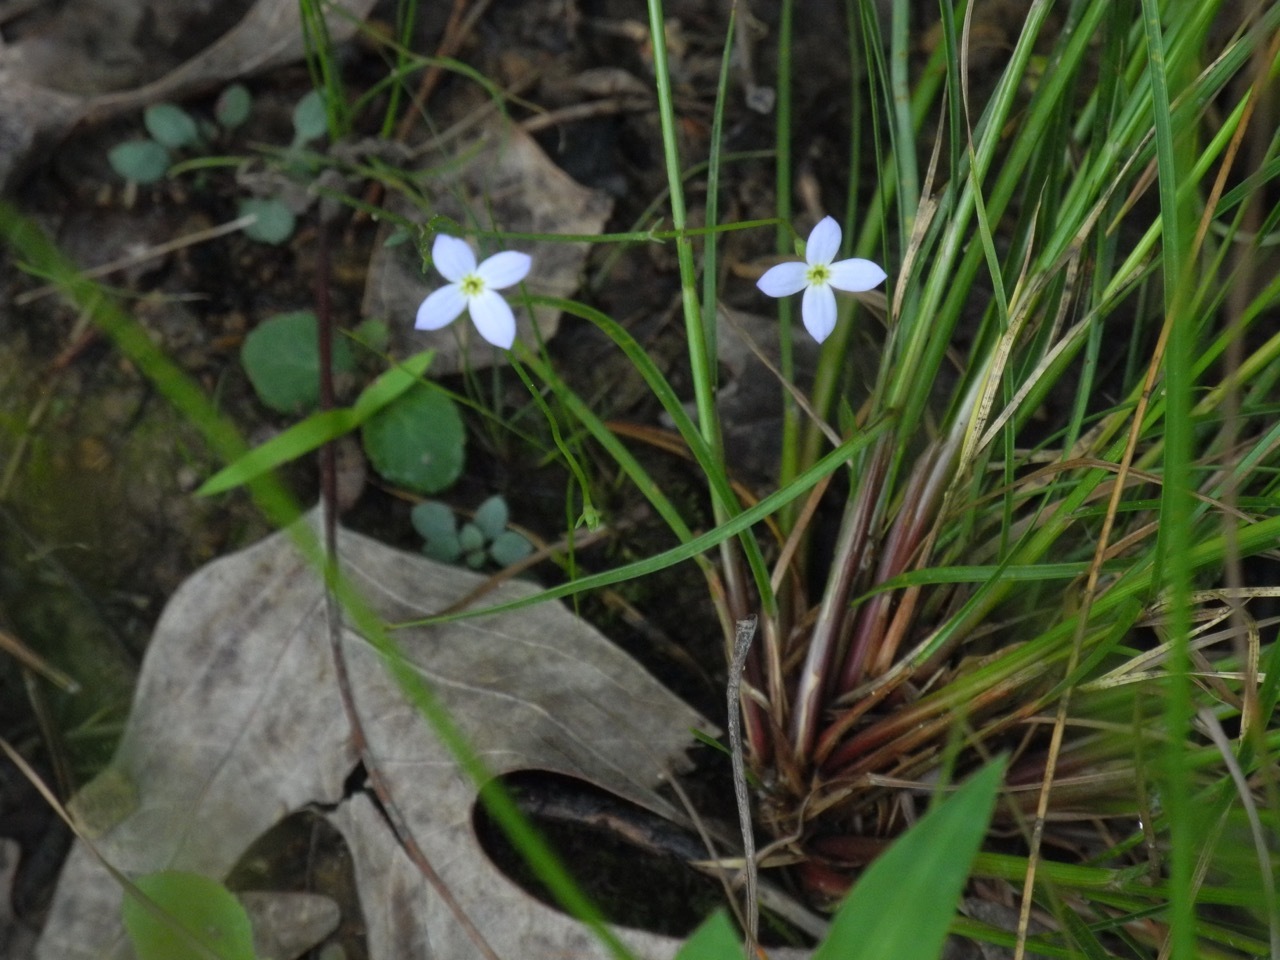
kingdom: Plantae
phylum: Tracheophyta
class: Magnoliopsida
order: Gentianales
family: Rubiaceae
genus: Houstonia
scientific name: Houstonia caerulea
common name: Bluets
